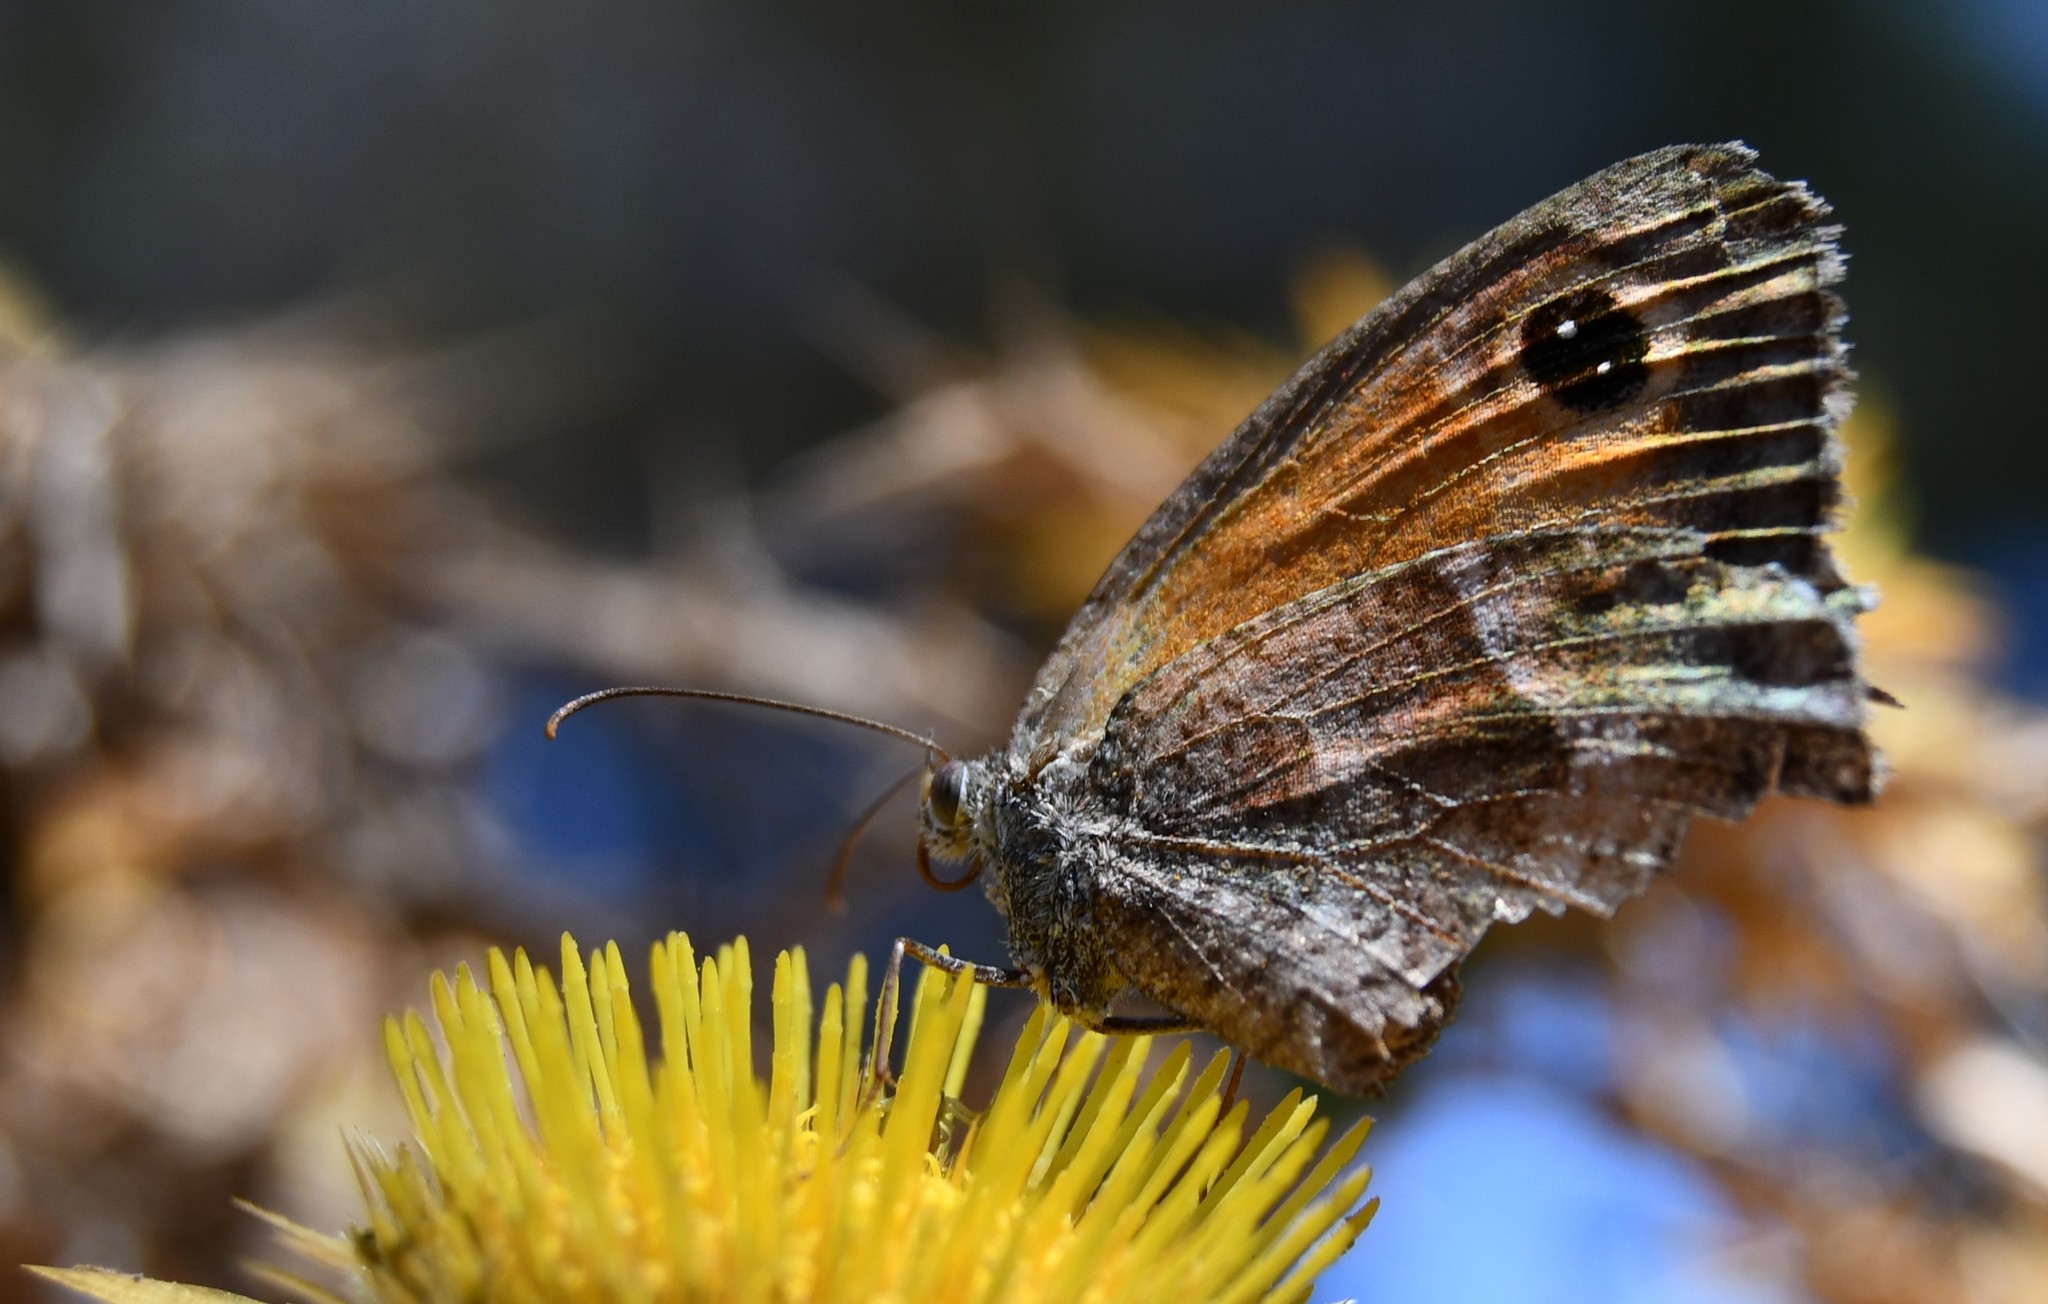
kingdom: Animalia
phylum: Arthropoda
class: Insecta
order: Lepidoptera
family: Nymphalidae
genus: Pyronia
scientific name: Pyronia cecilia
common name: Southern gatekeeper
